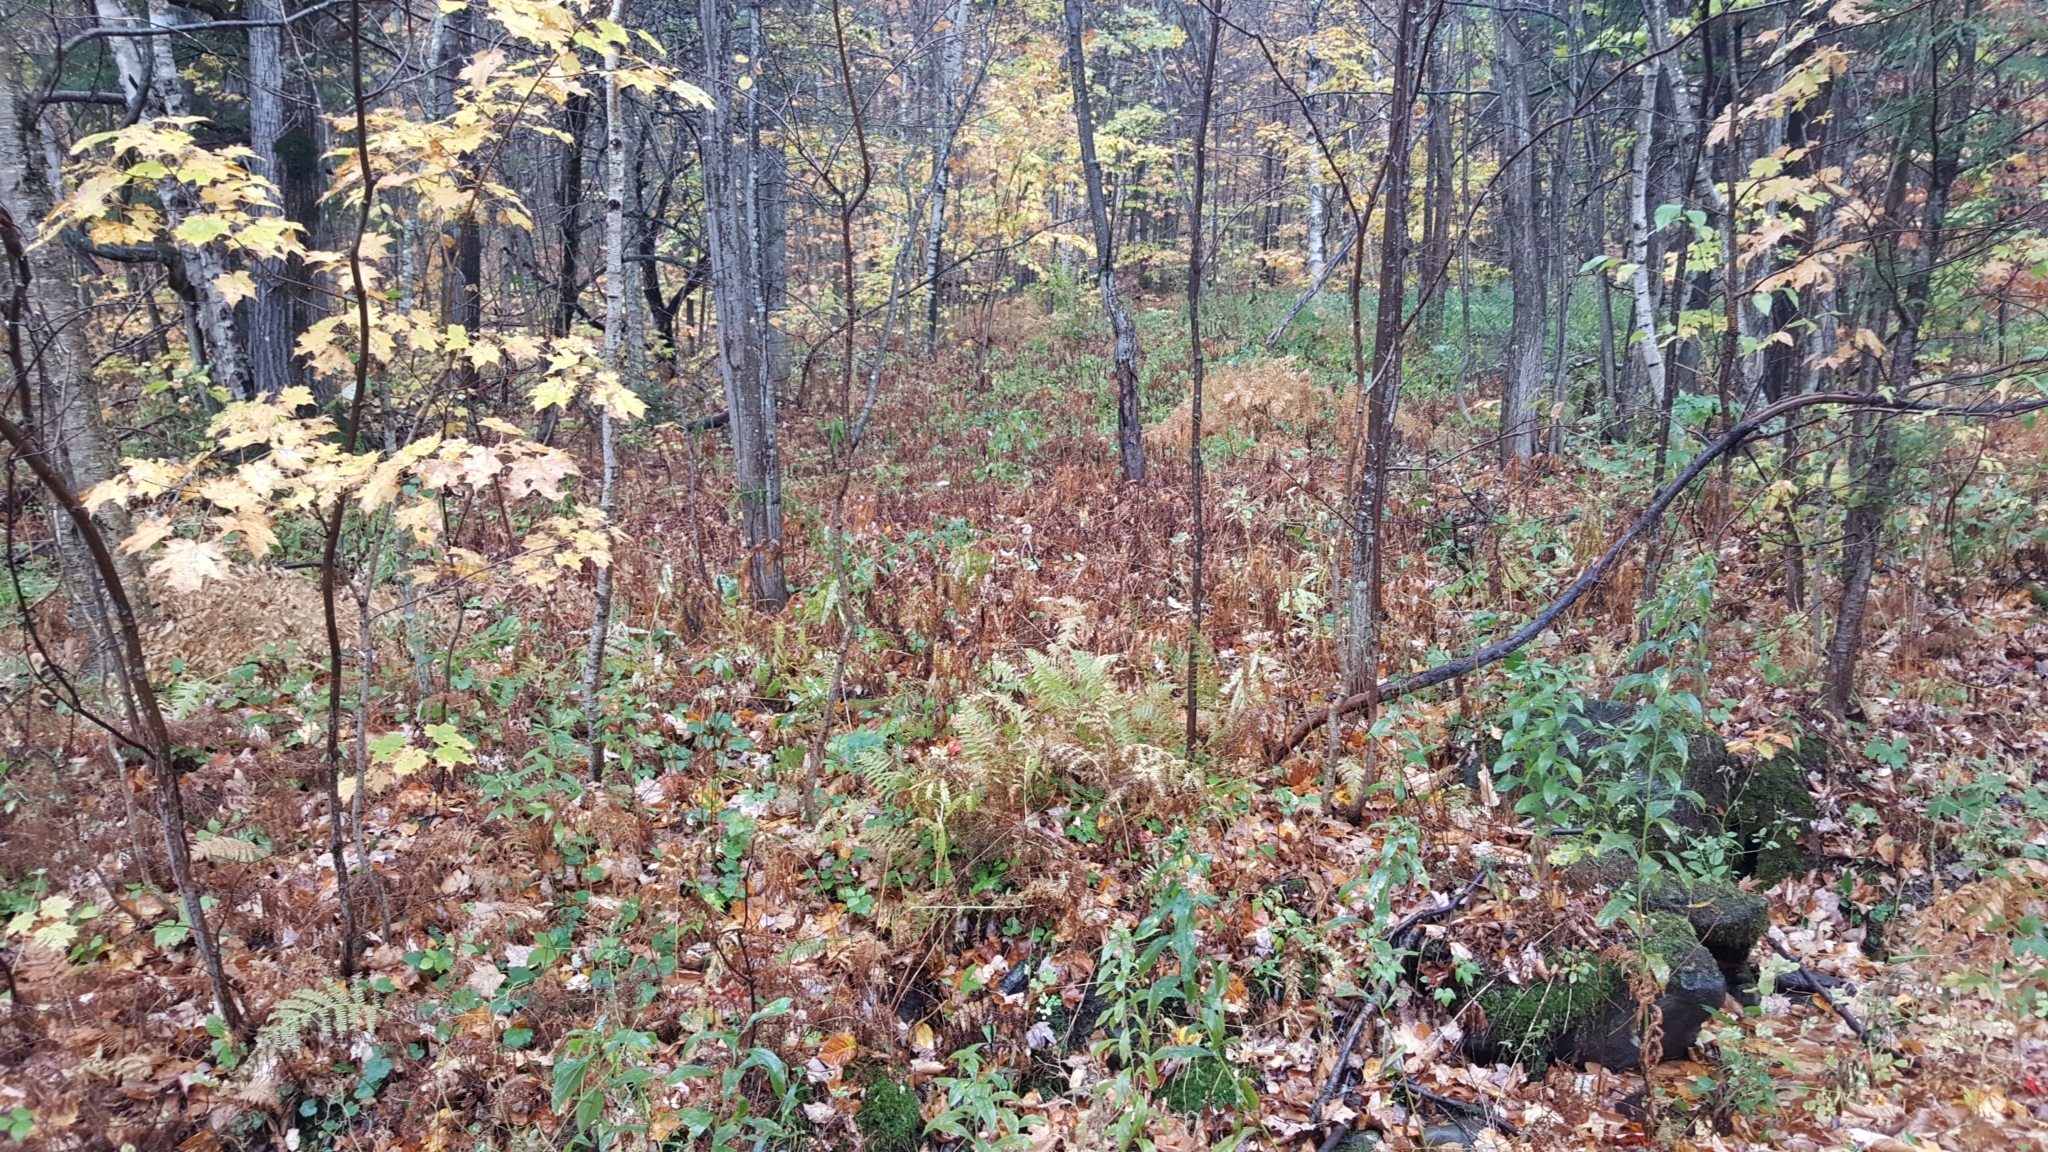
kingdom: Plantae
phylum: Tracheophyta
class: Polypodiopsida
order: Osmundales
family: Osmundaceae
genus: Osmunda
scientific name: Osmunda spectabilis
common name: American royal fern
